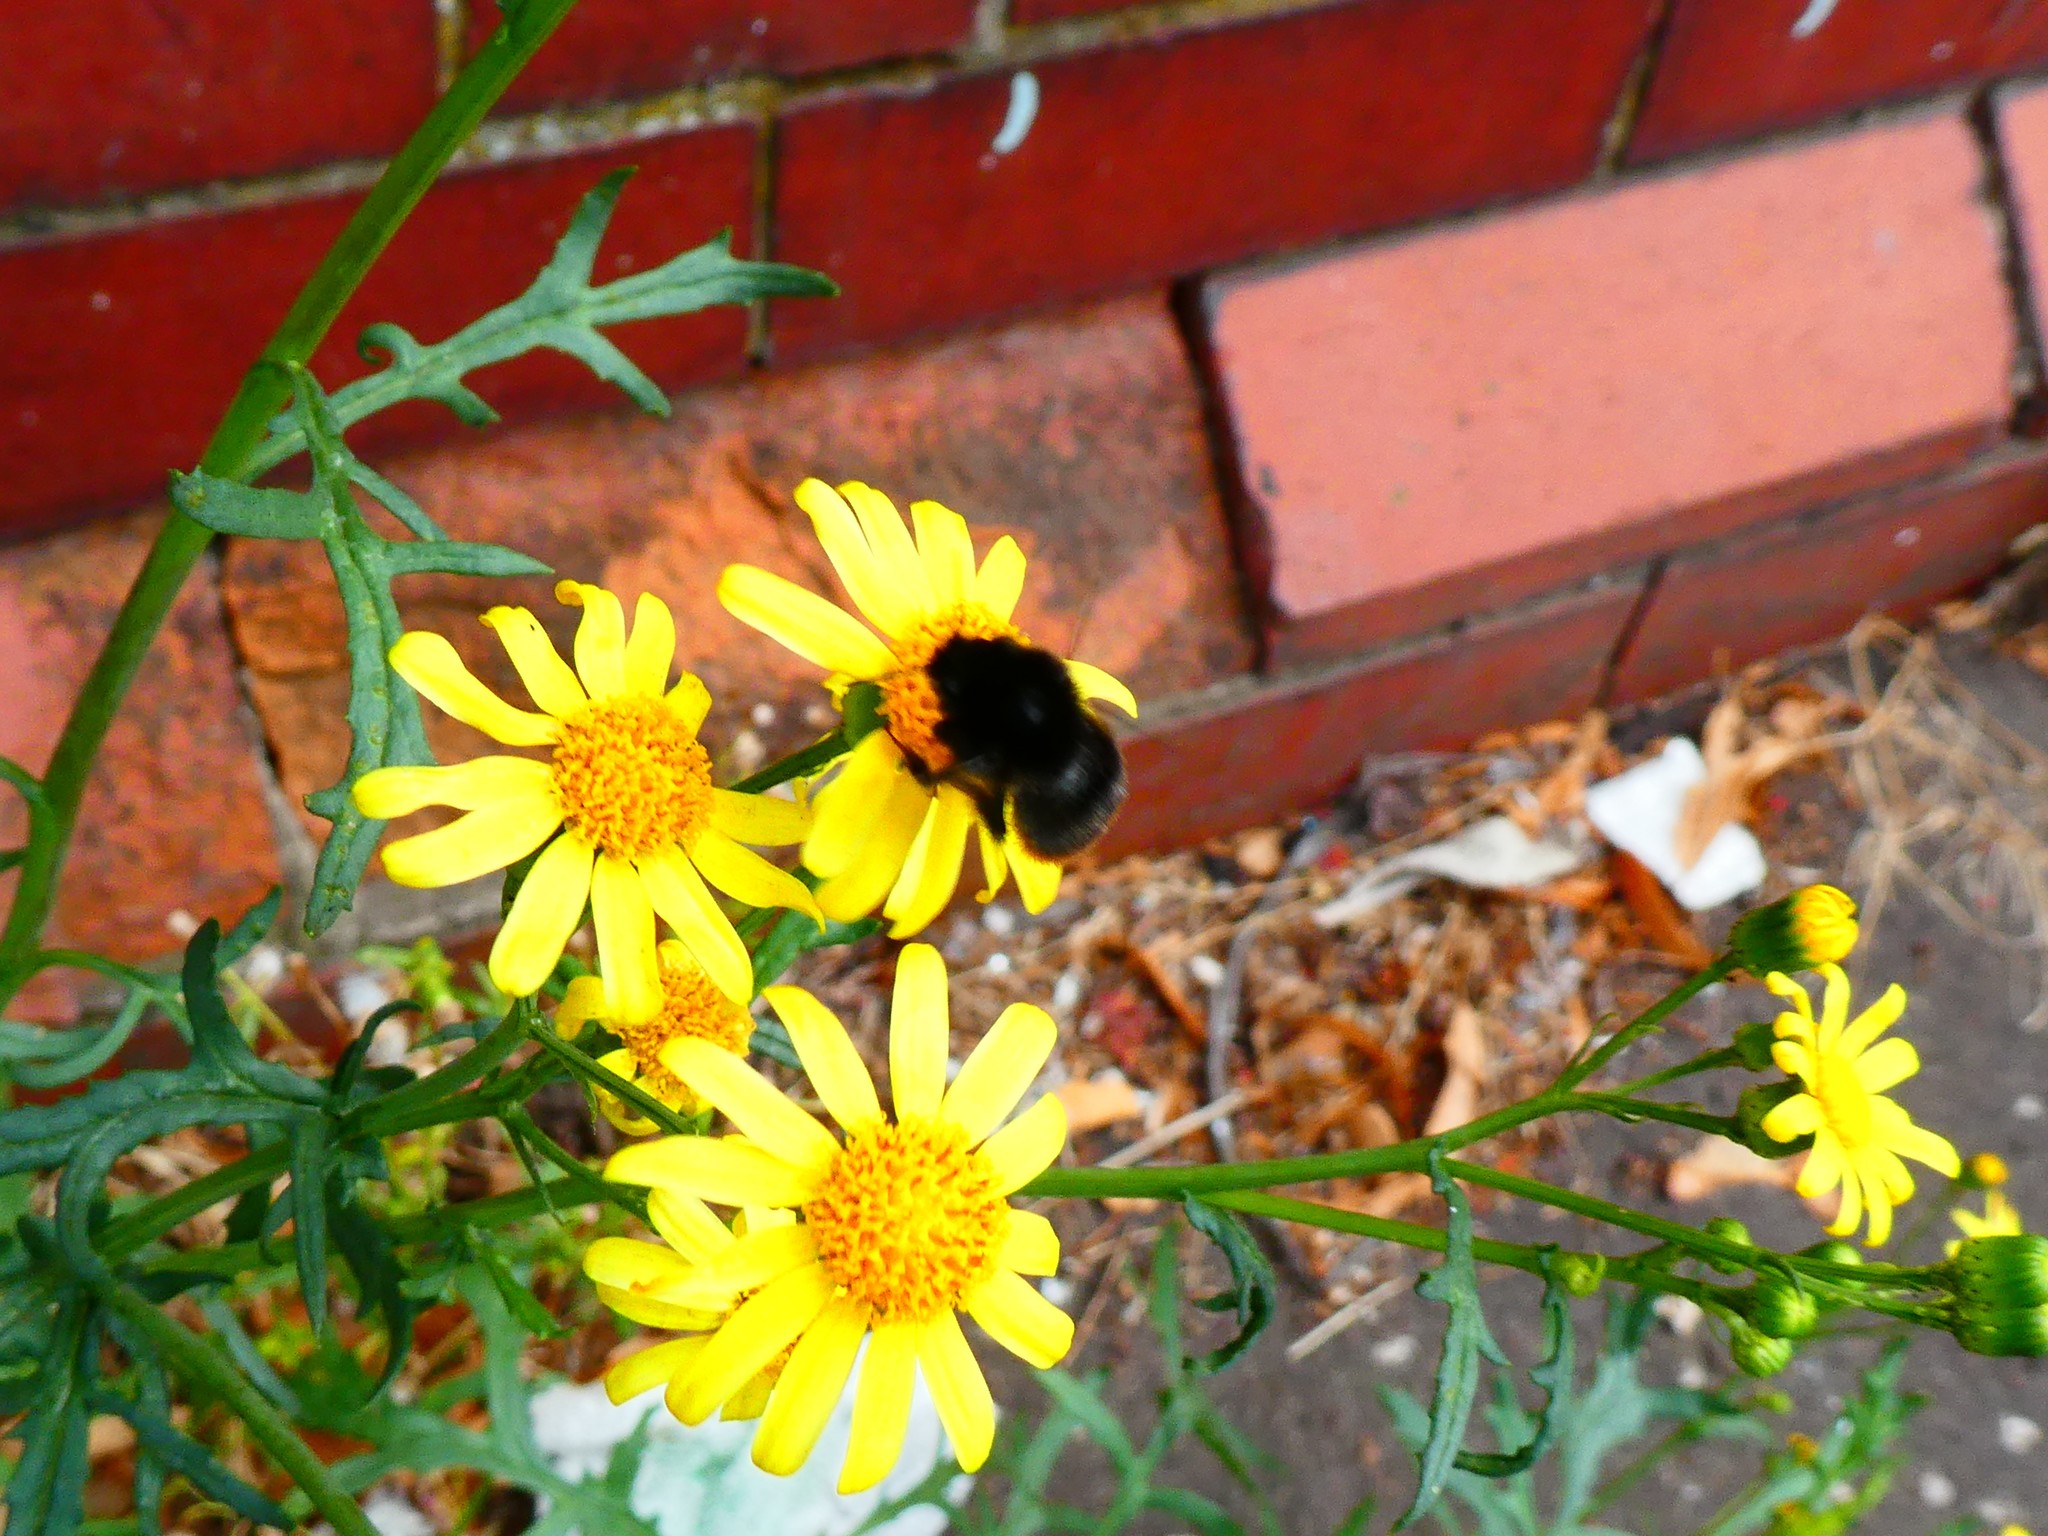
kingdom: Plantae
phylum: Tracheophyta
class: Magnoliopsida
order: Asterales
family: Asteraceae
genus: Senecio
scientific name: Senecio squalidus
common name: Oxford ragwort
